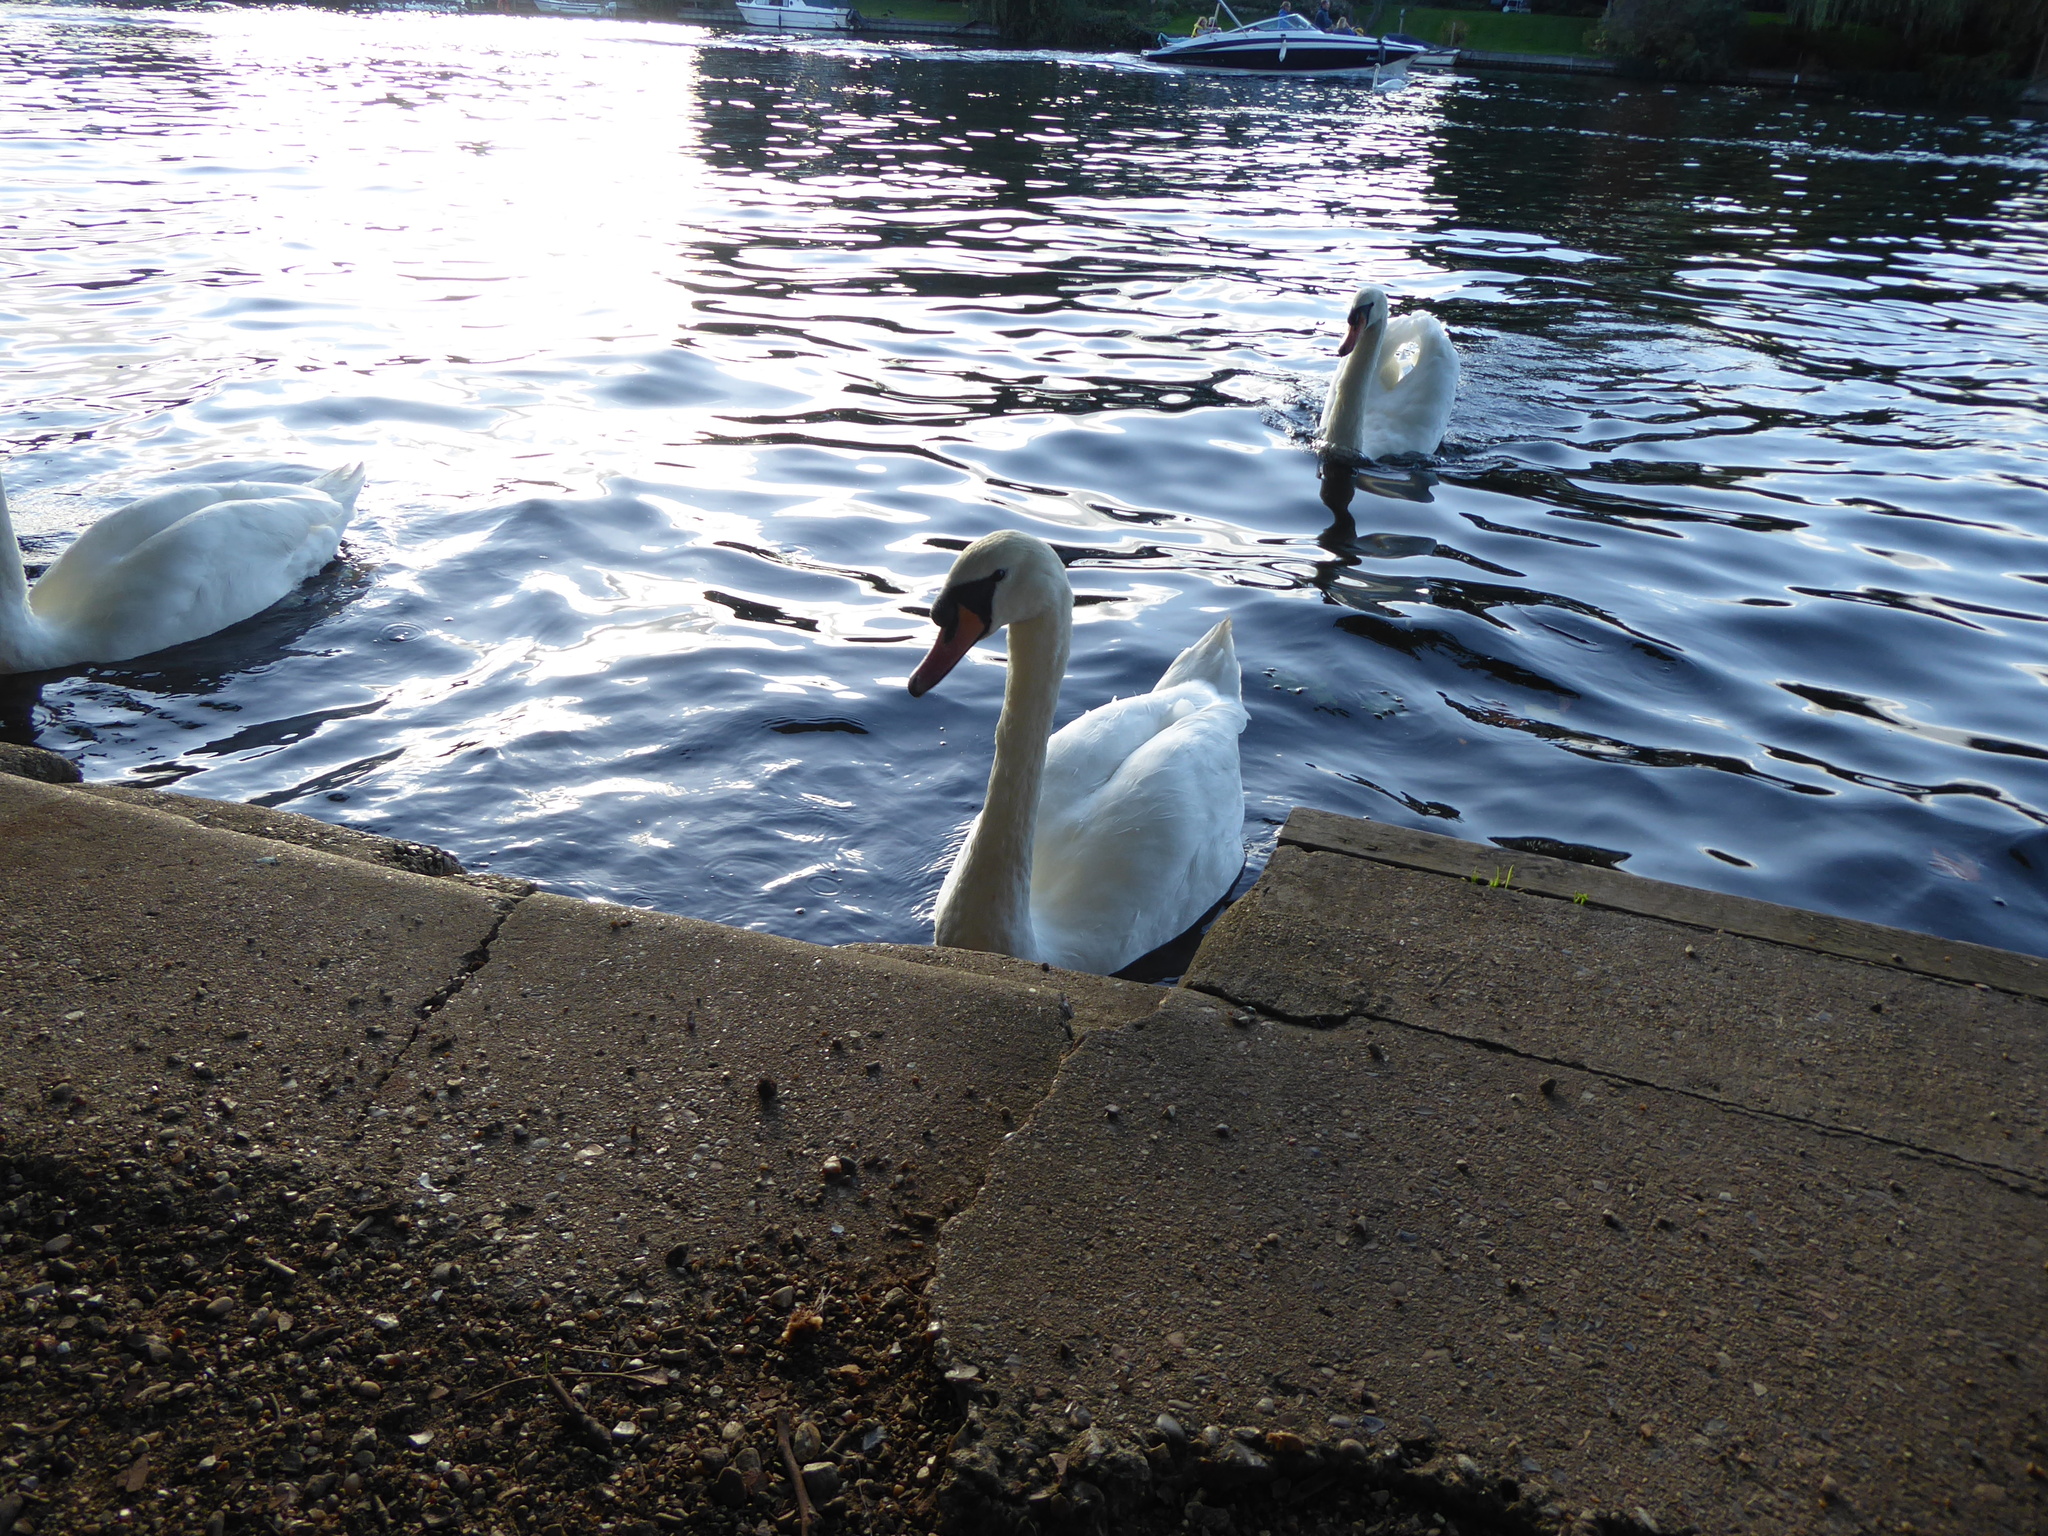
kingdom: Animalia
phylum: Chordata
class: Aves
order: Anseriformes
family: Anatidae
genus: Cygnus
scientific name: Cygnus olor
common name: Mute swan
